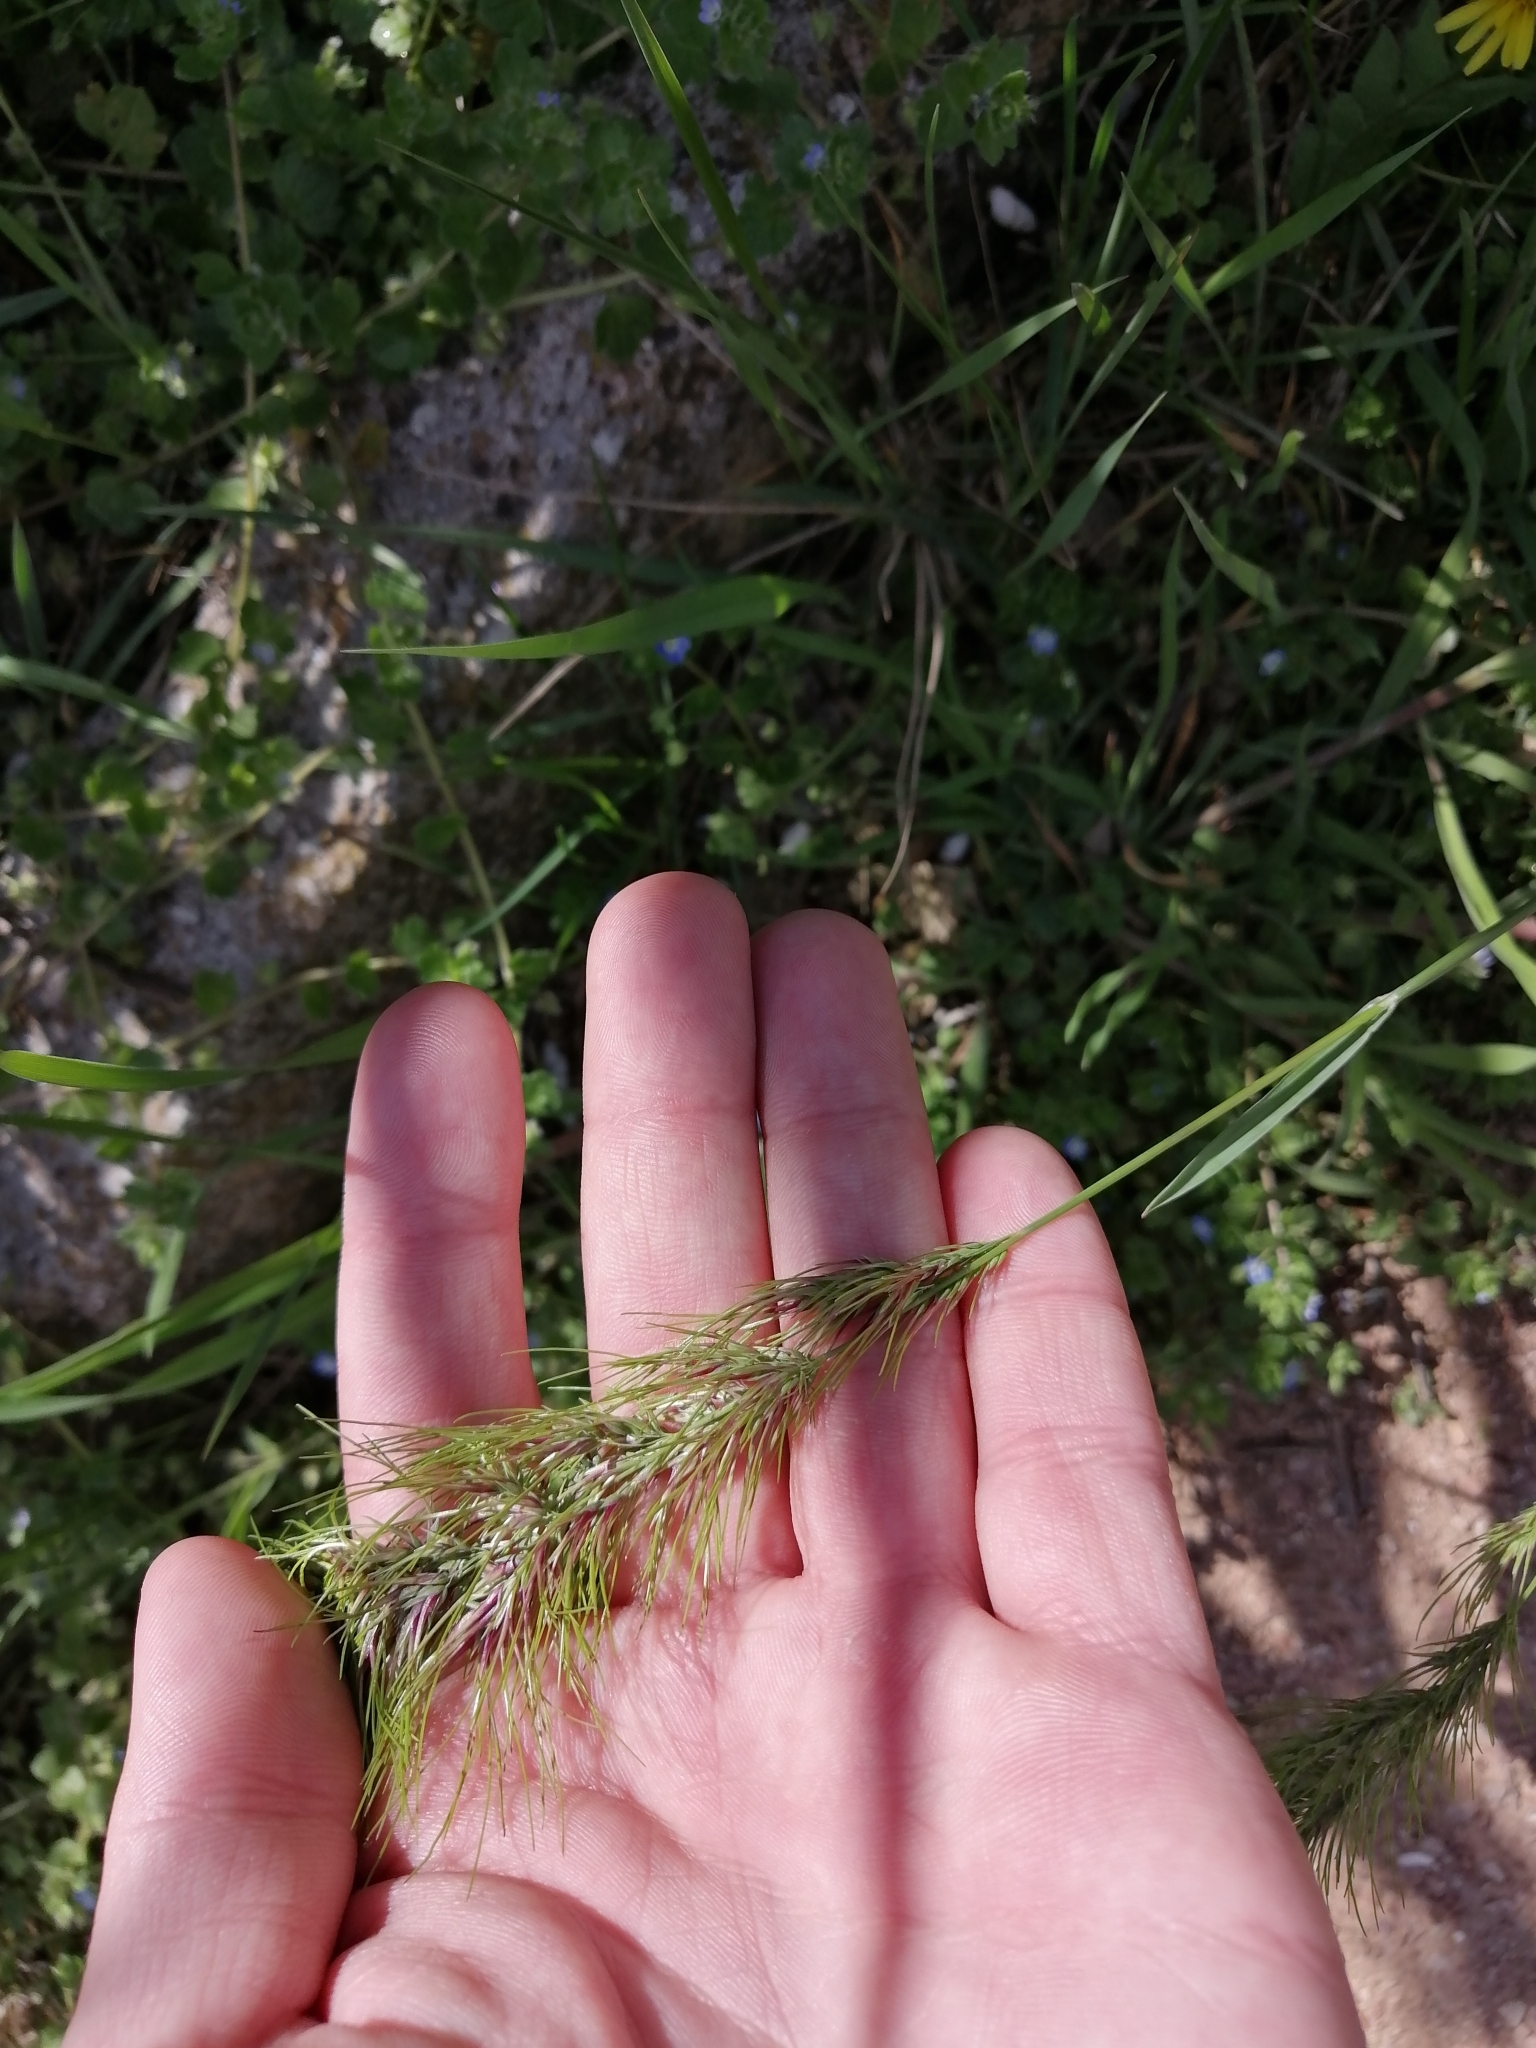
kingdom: Plantae
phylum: Tracheophyta
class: Liliopsida
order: Poales
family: Poaceae
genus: Poa
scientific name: Poa bulbosa
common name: Bulbous bluegrass
